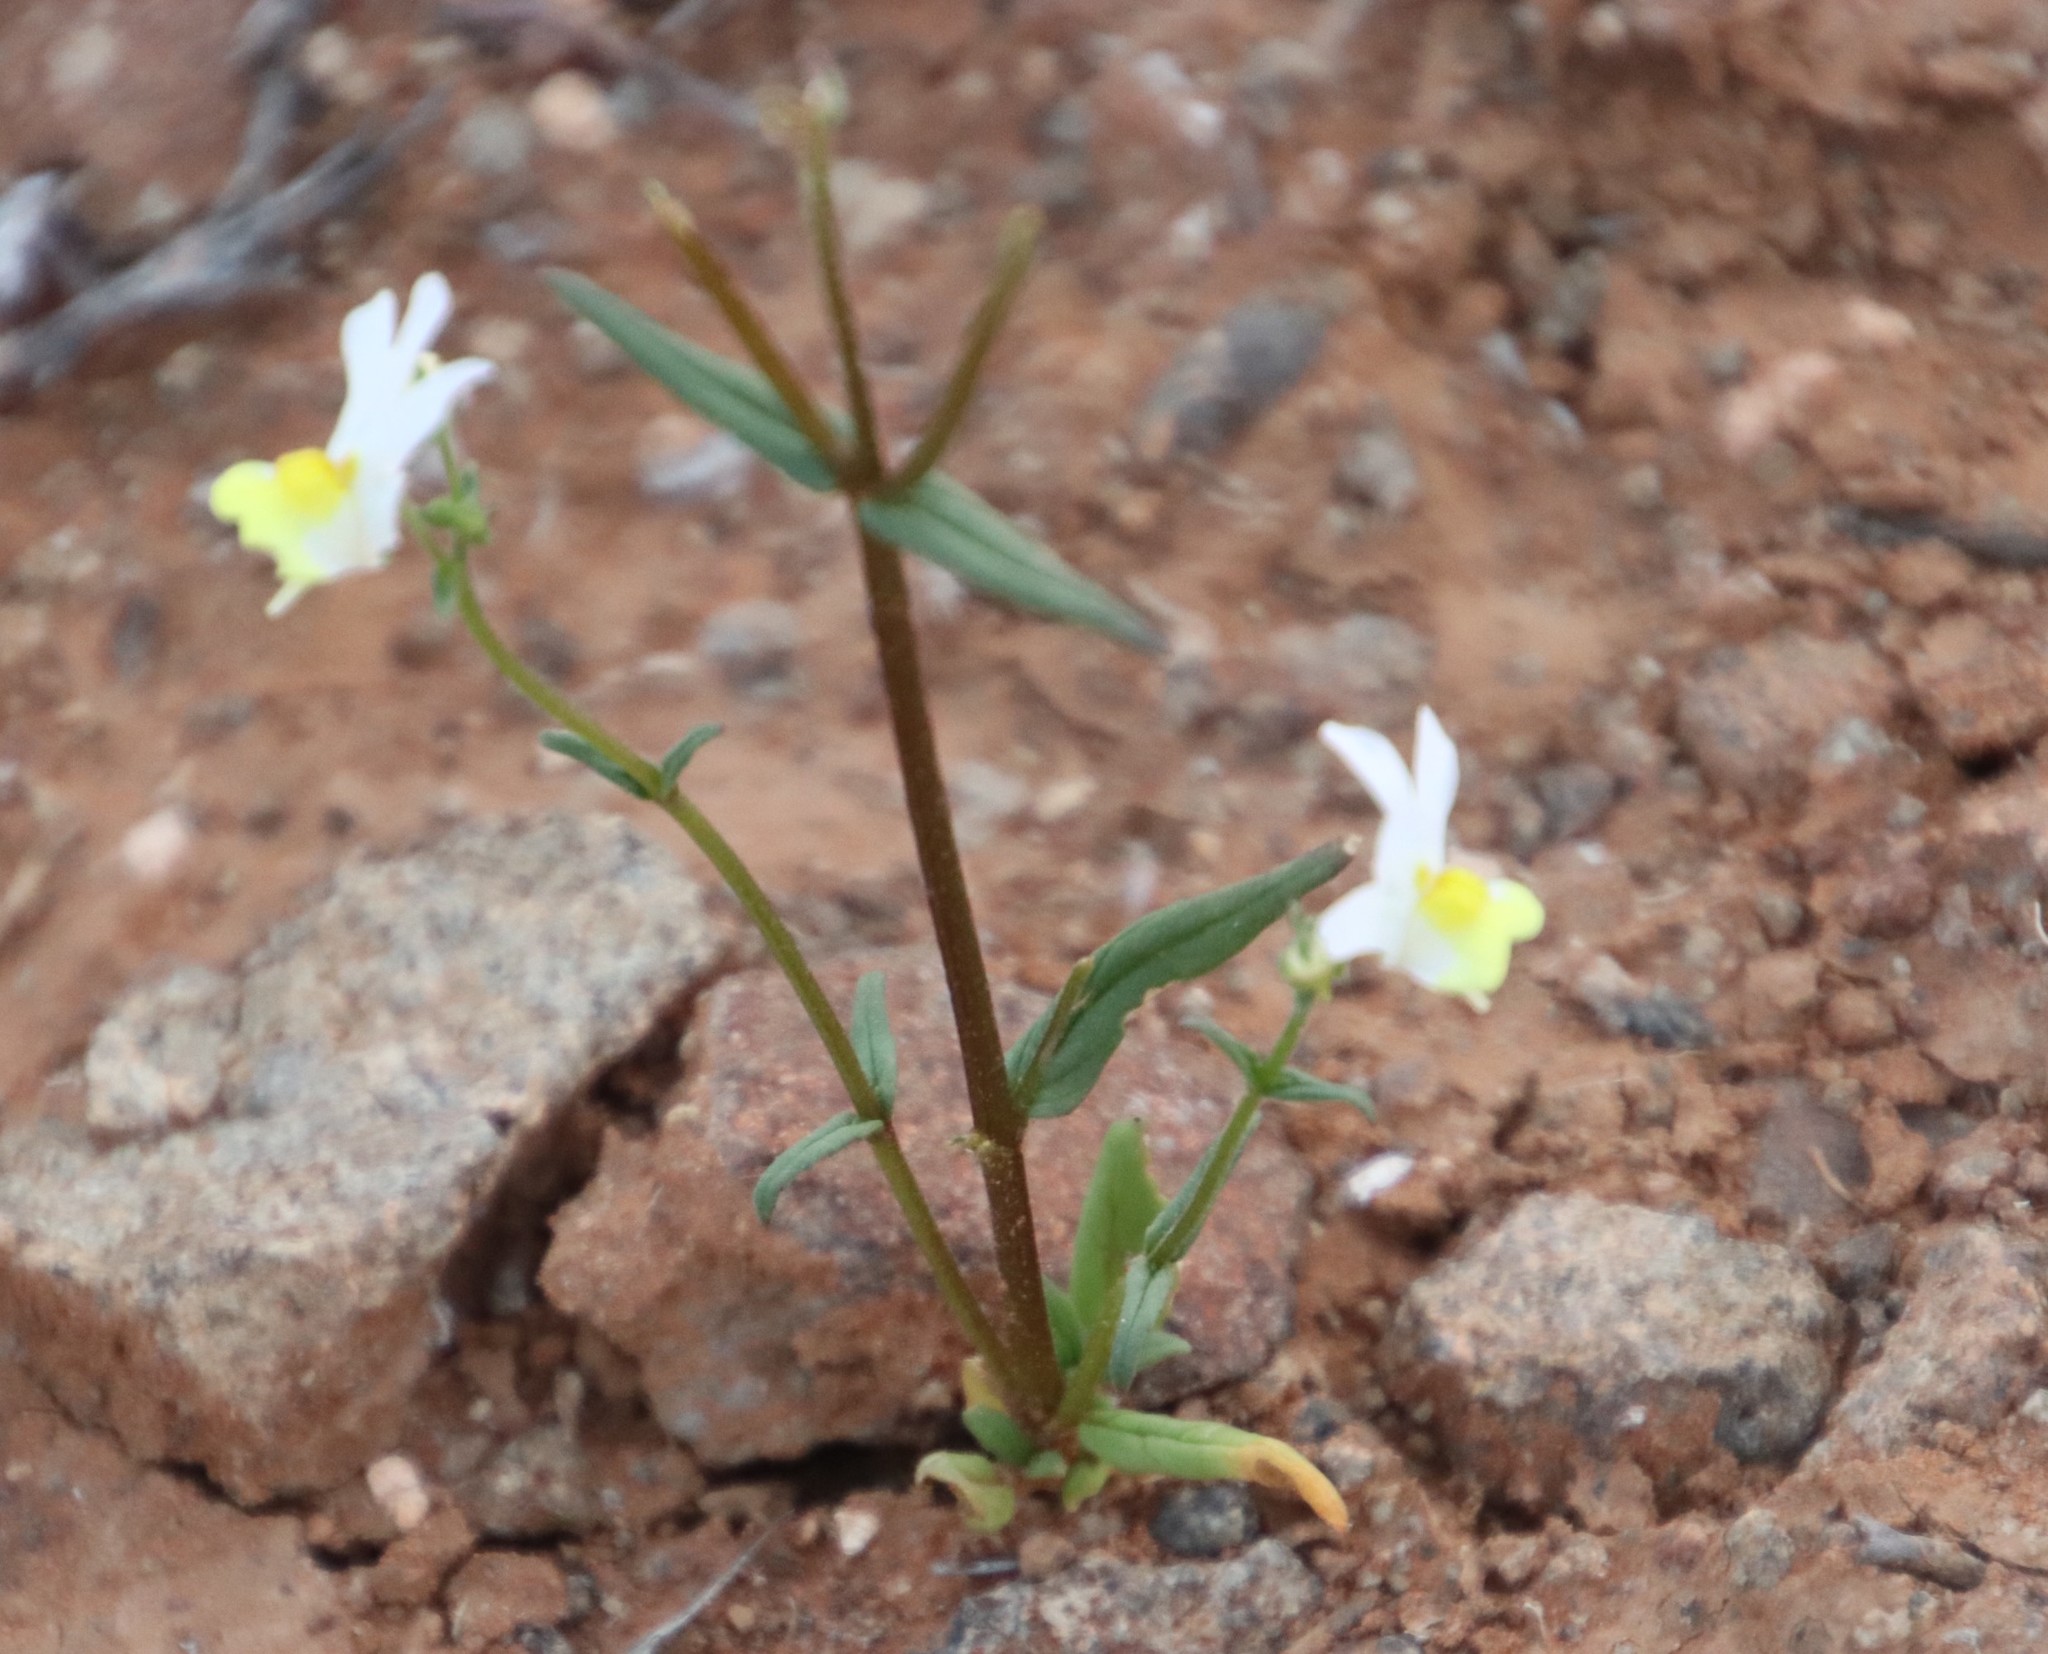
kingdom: Plantae
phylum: Tracheophyta
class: Magnoliopsida
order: Lamiales
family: Scrophulariaceae
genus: Nemesia
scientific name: Nemesia anisocarpa
